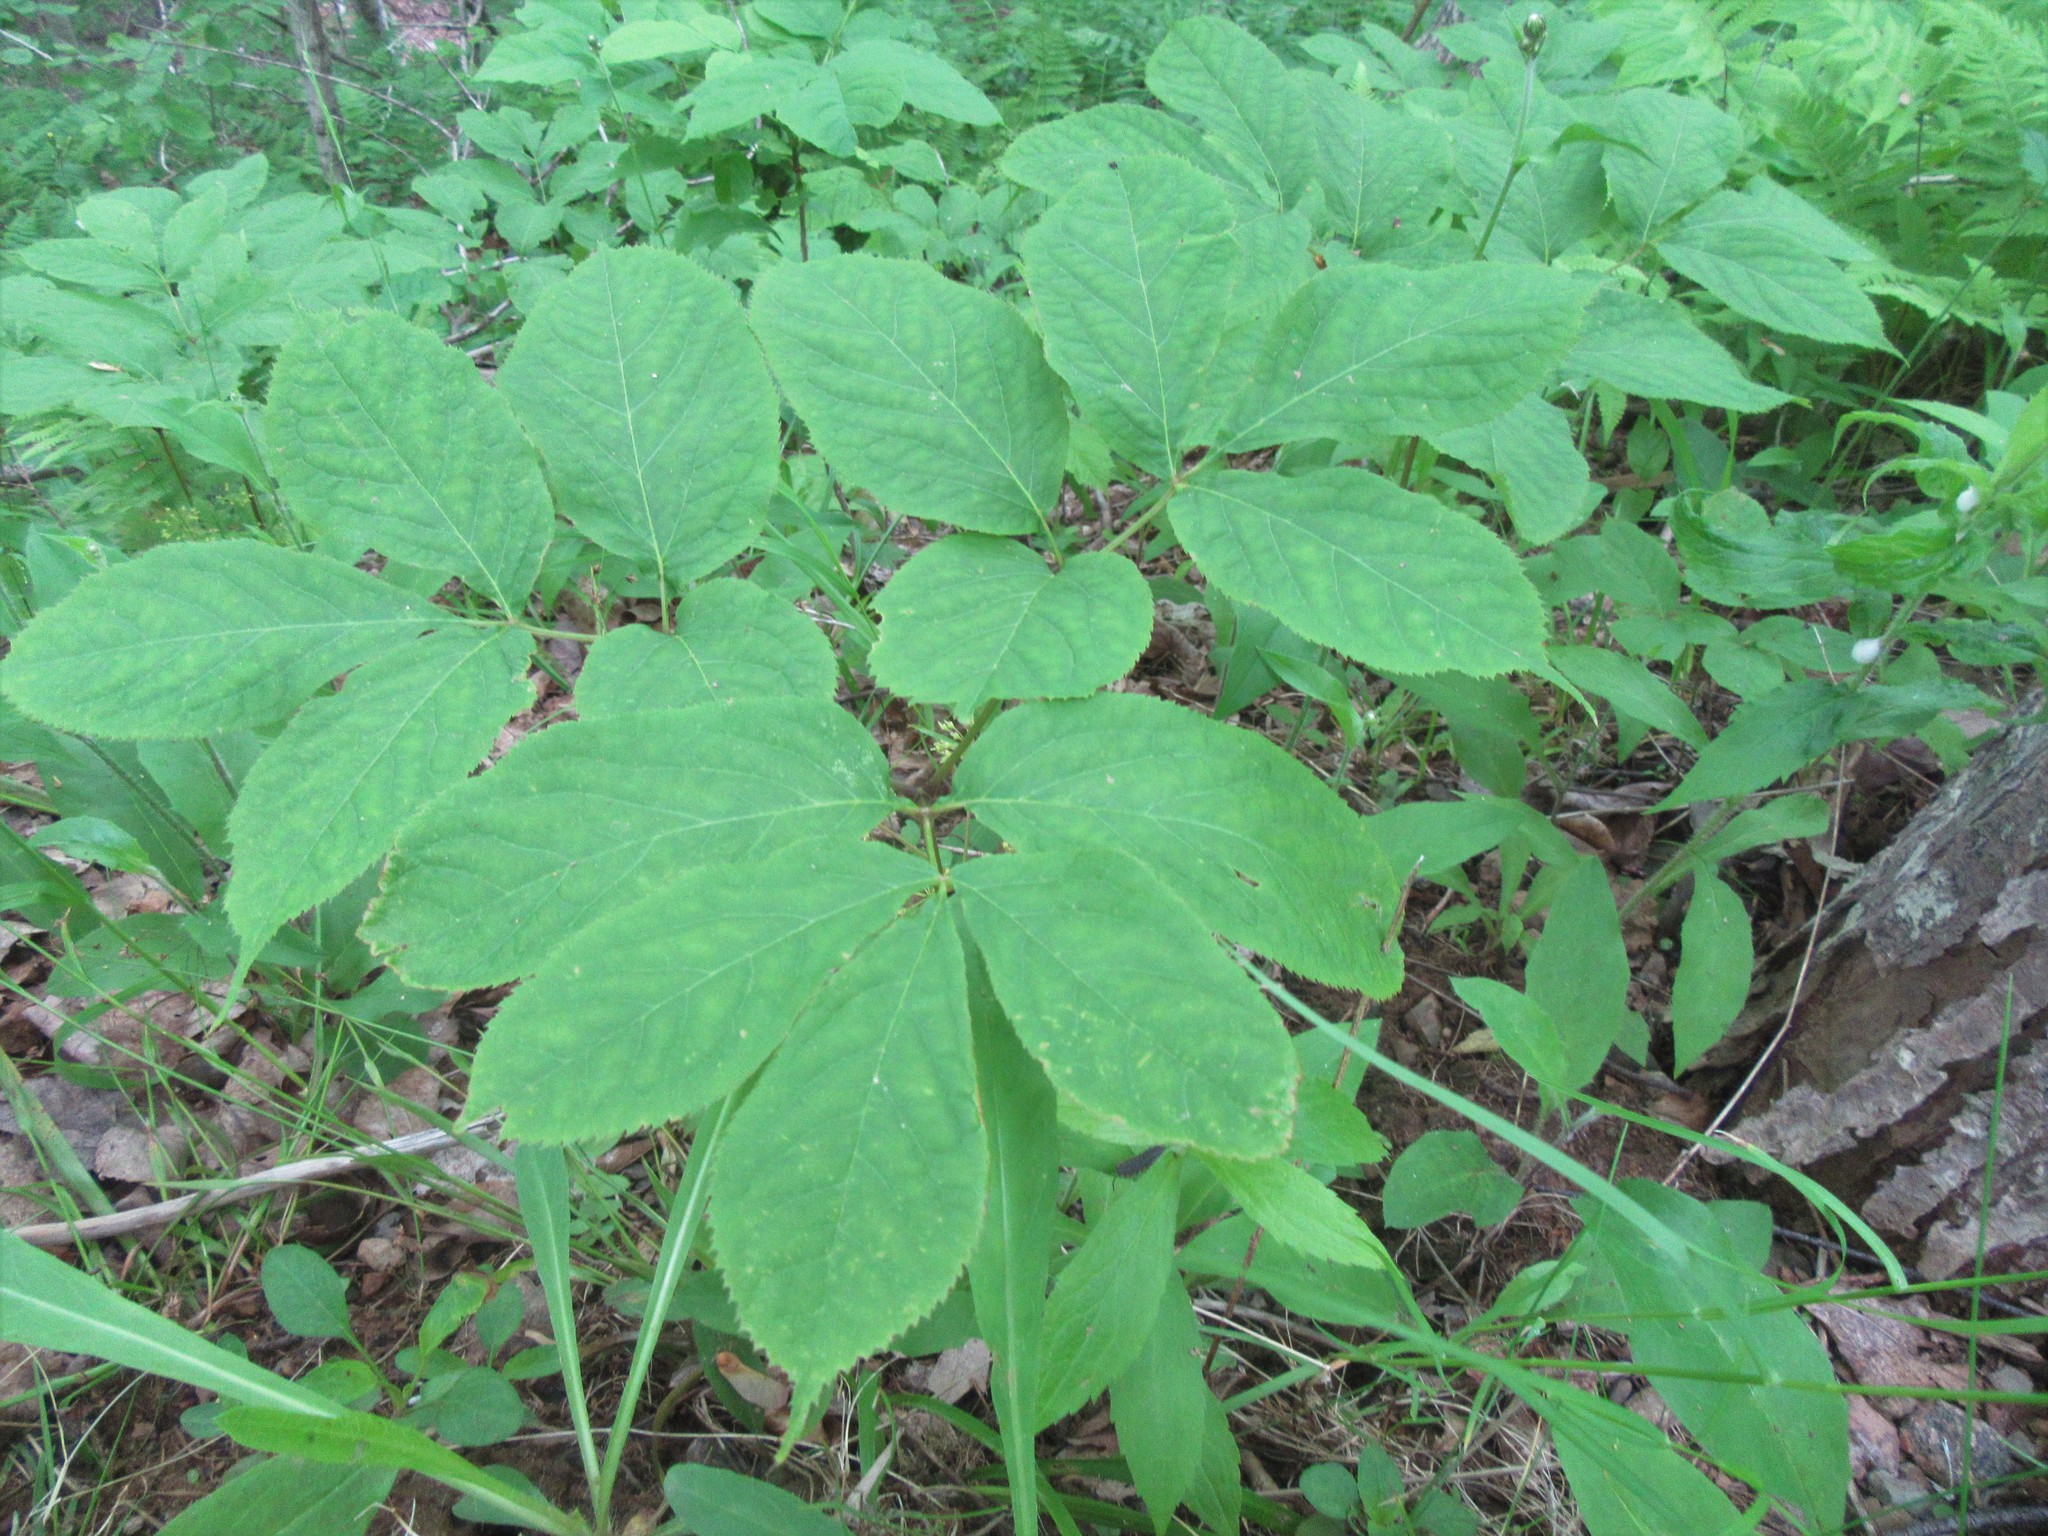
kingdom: Plantae
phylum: Tracheophyta
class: Magnoliopsida
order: Apiales
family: Araliaceae
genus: Aralia
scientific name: Aralia nudicaulis
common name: Wild sarsaparilla
